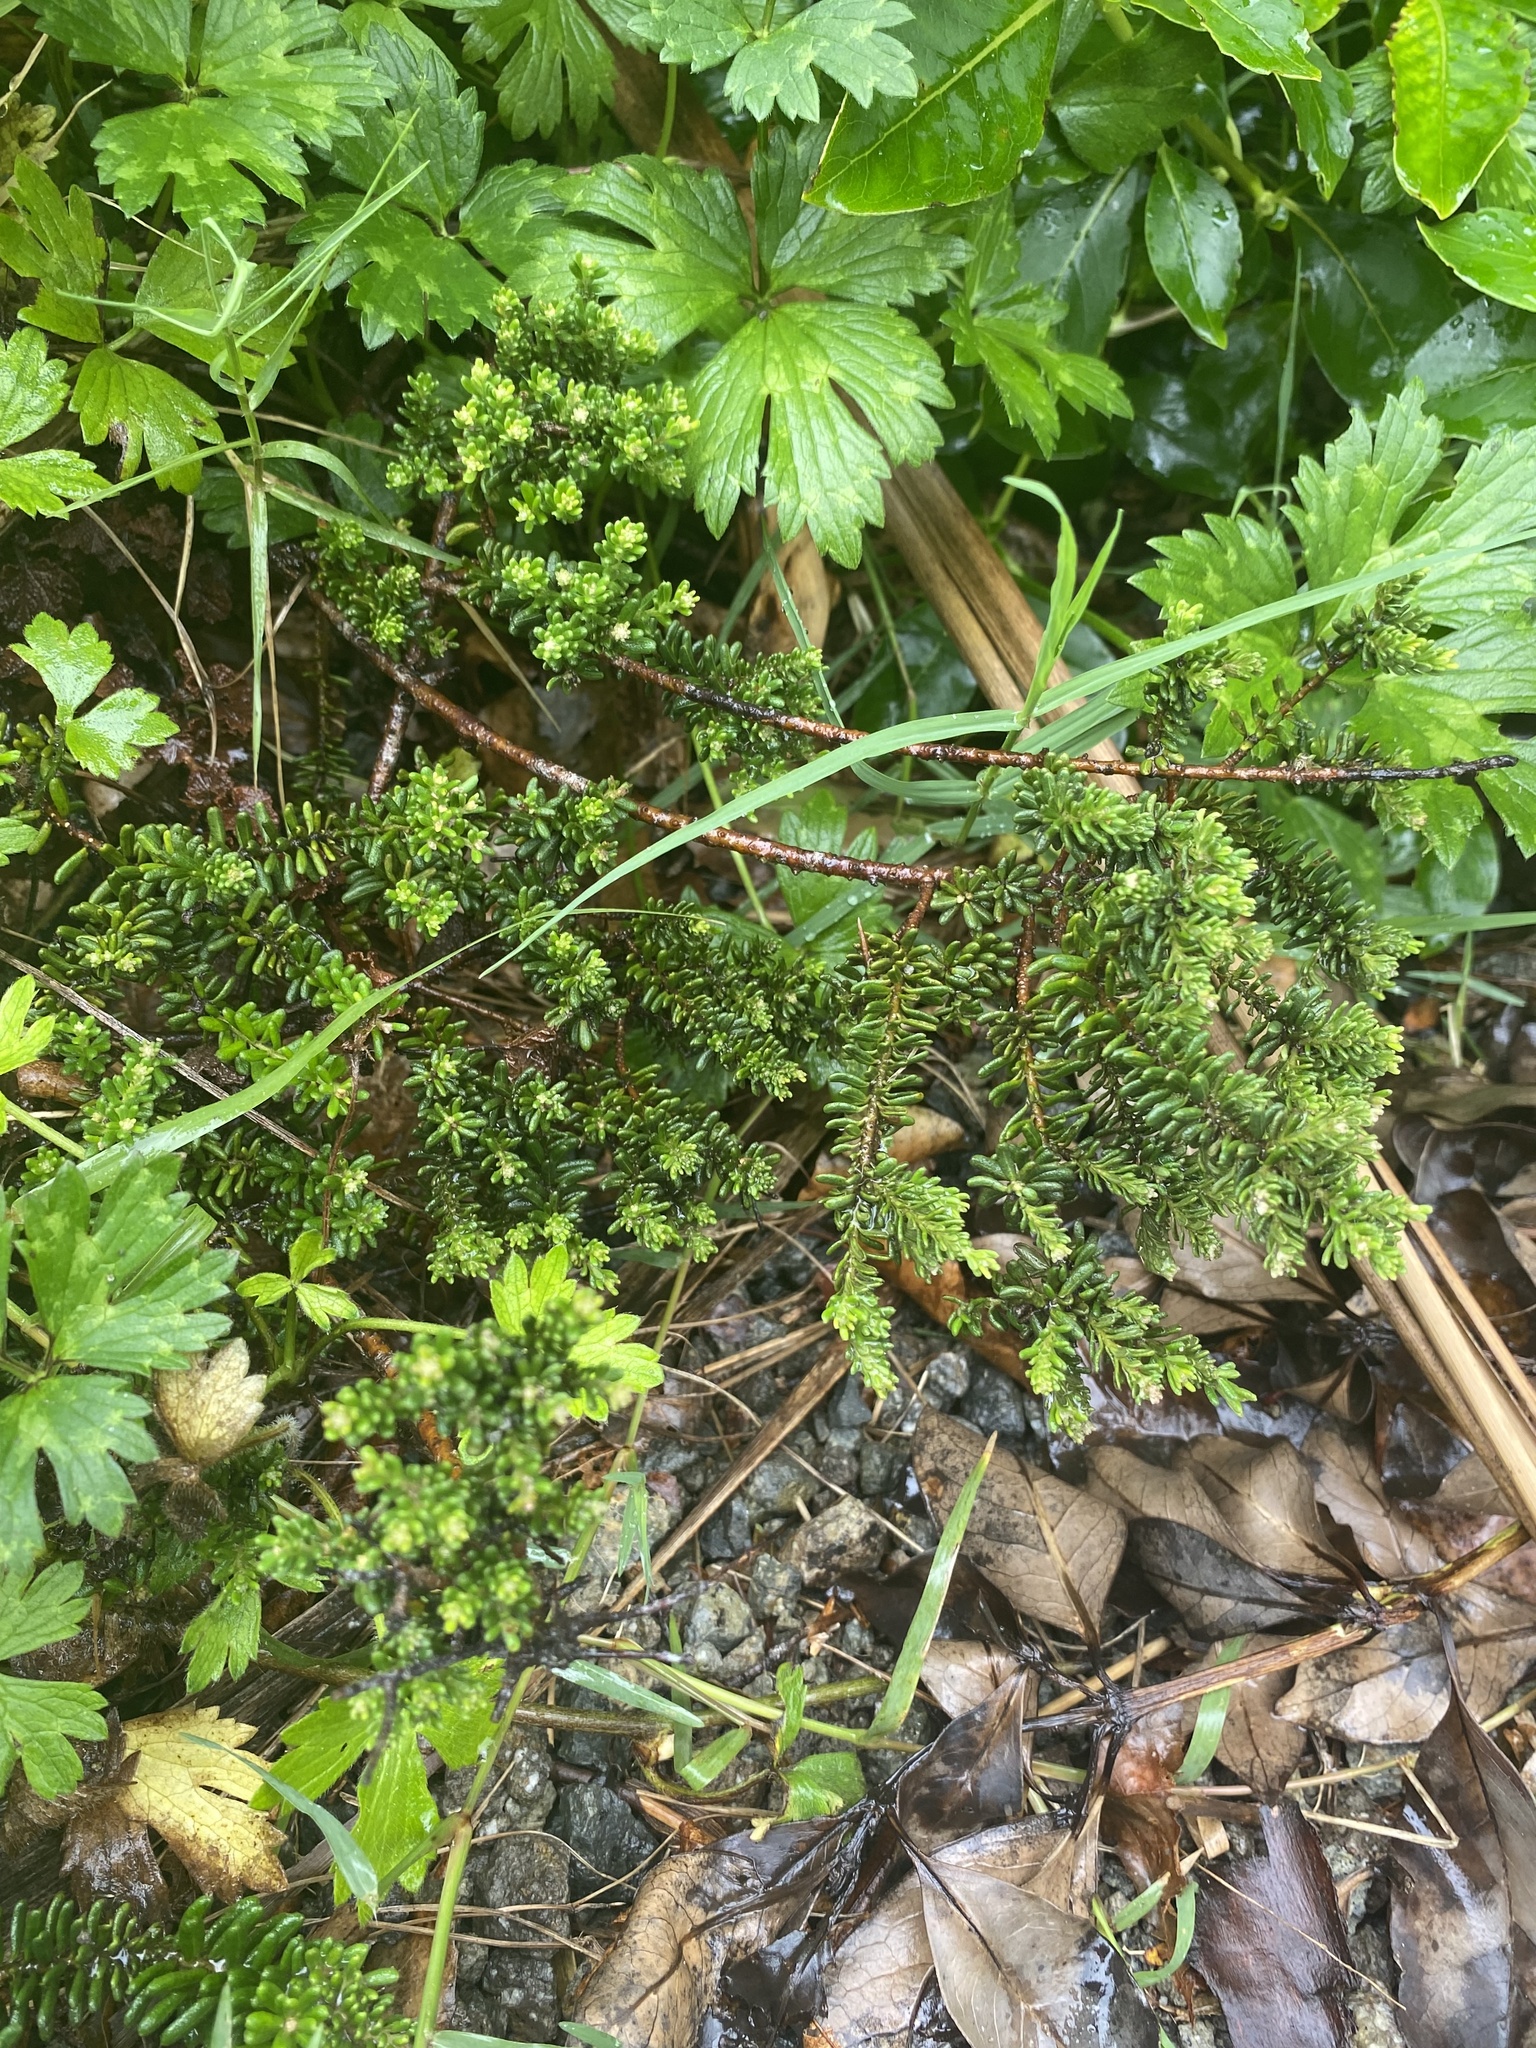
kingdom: Plantae
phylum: Tracheophyta
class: Magnoliopsida
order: Rosales
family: Rhamnaceae
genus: Pomaderris
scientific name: Pomaderris amoena
